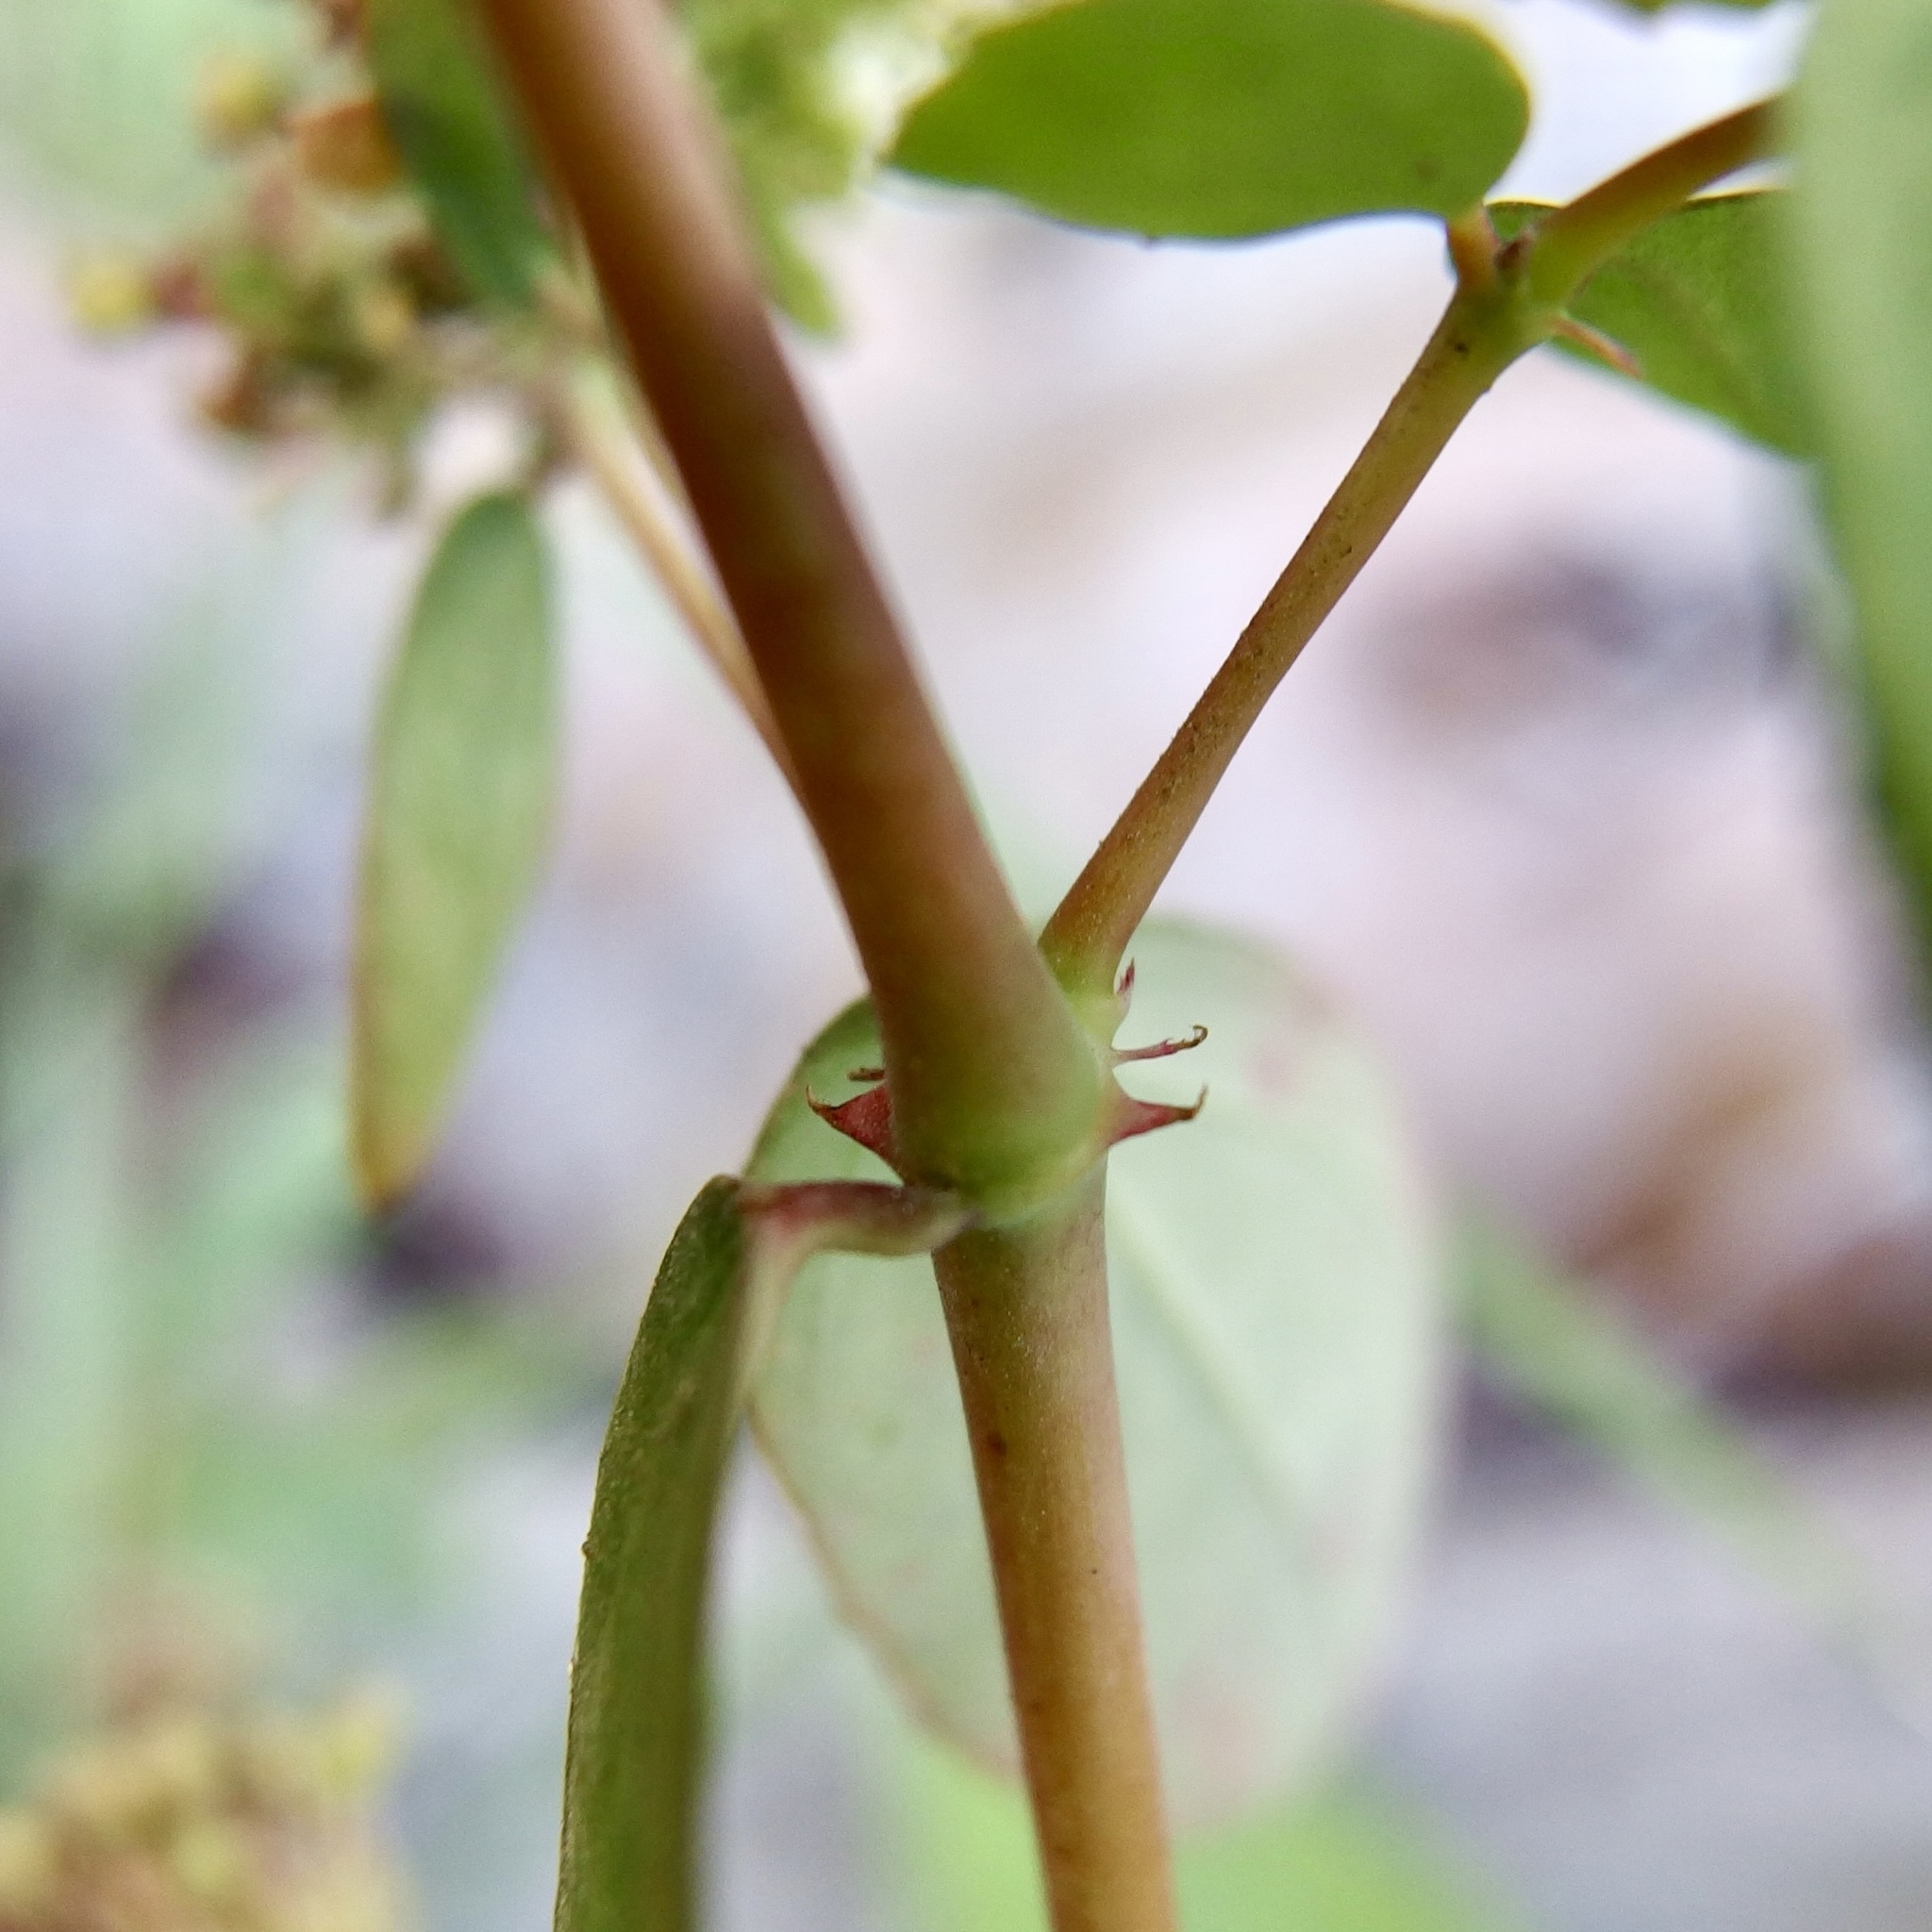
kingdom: Plantae
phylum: Tracheophyta
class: Magnoliopsida
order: Malpighiales
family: Euphorbiaceae
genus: Euphorbia
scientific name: Euphorbia hypericifolia
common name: Graceful sandmat
